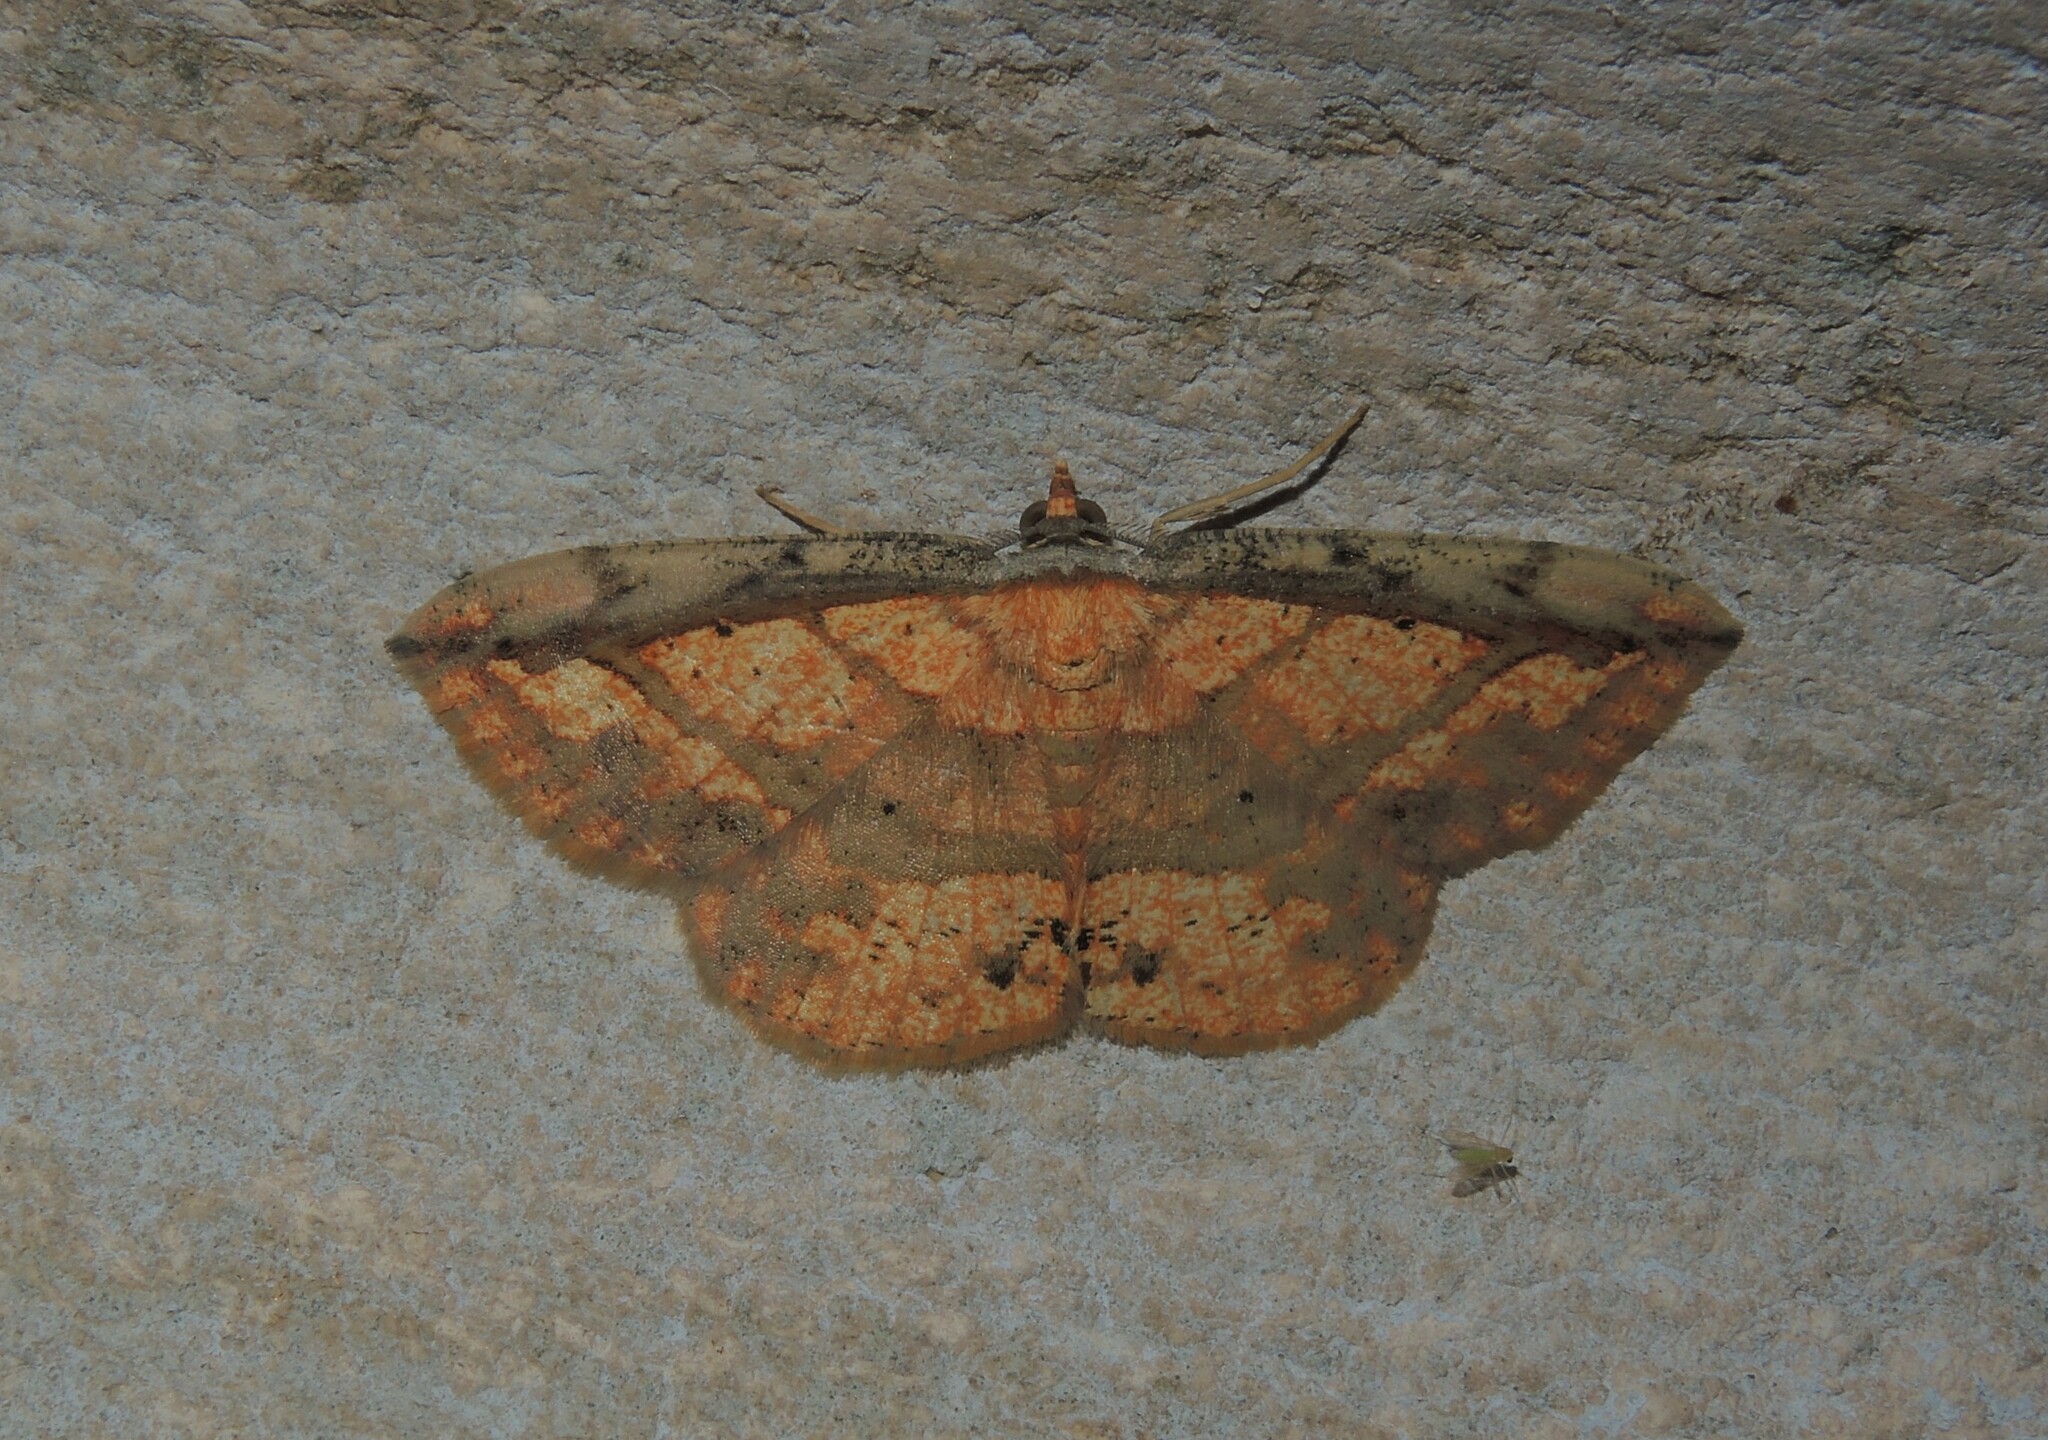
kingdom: Animalia
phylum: Arthropoda
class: Insecta
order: Lepidoptera
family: Geometridae
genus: Platycerota
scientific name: Platycerota vitticostata
